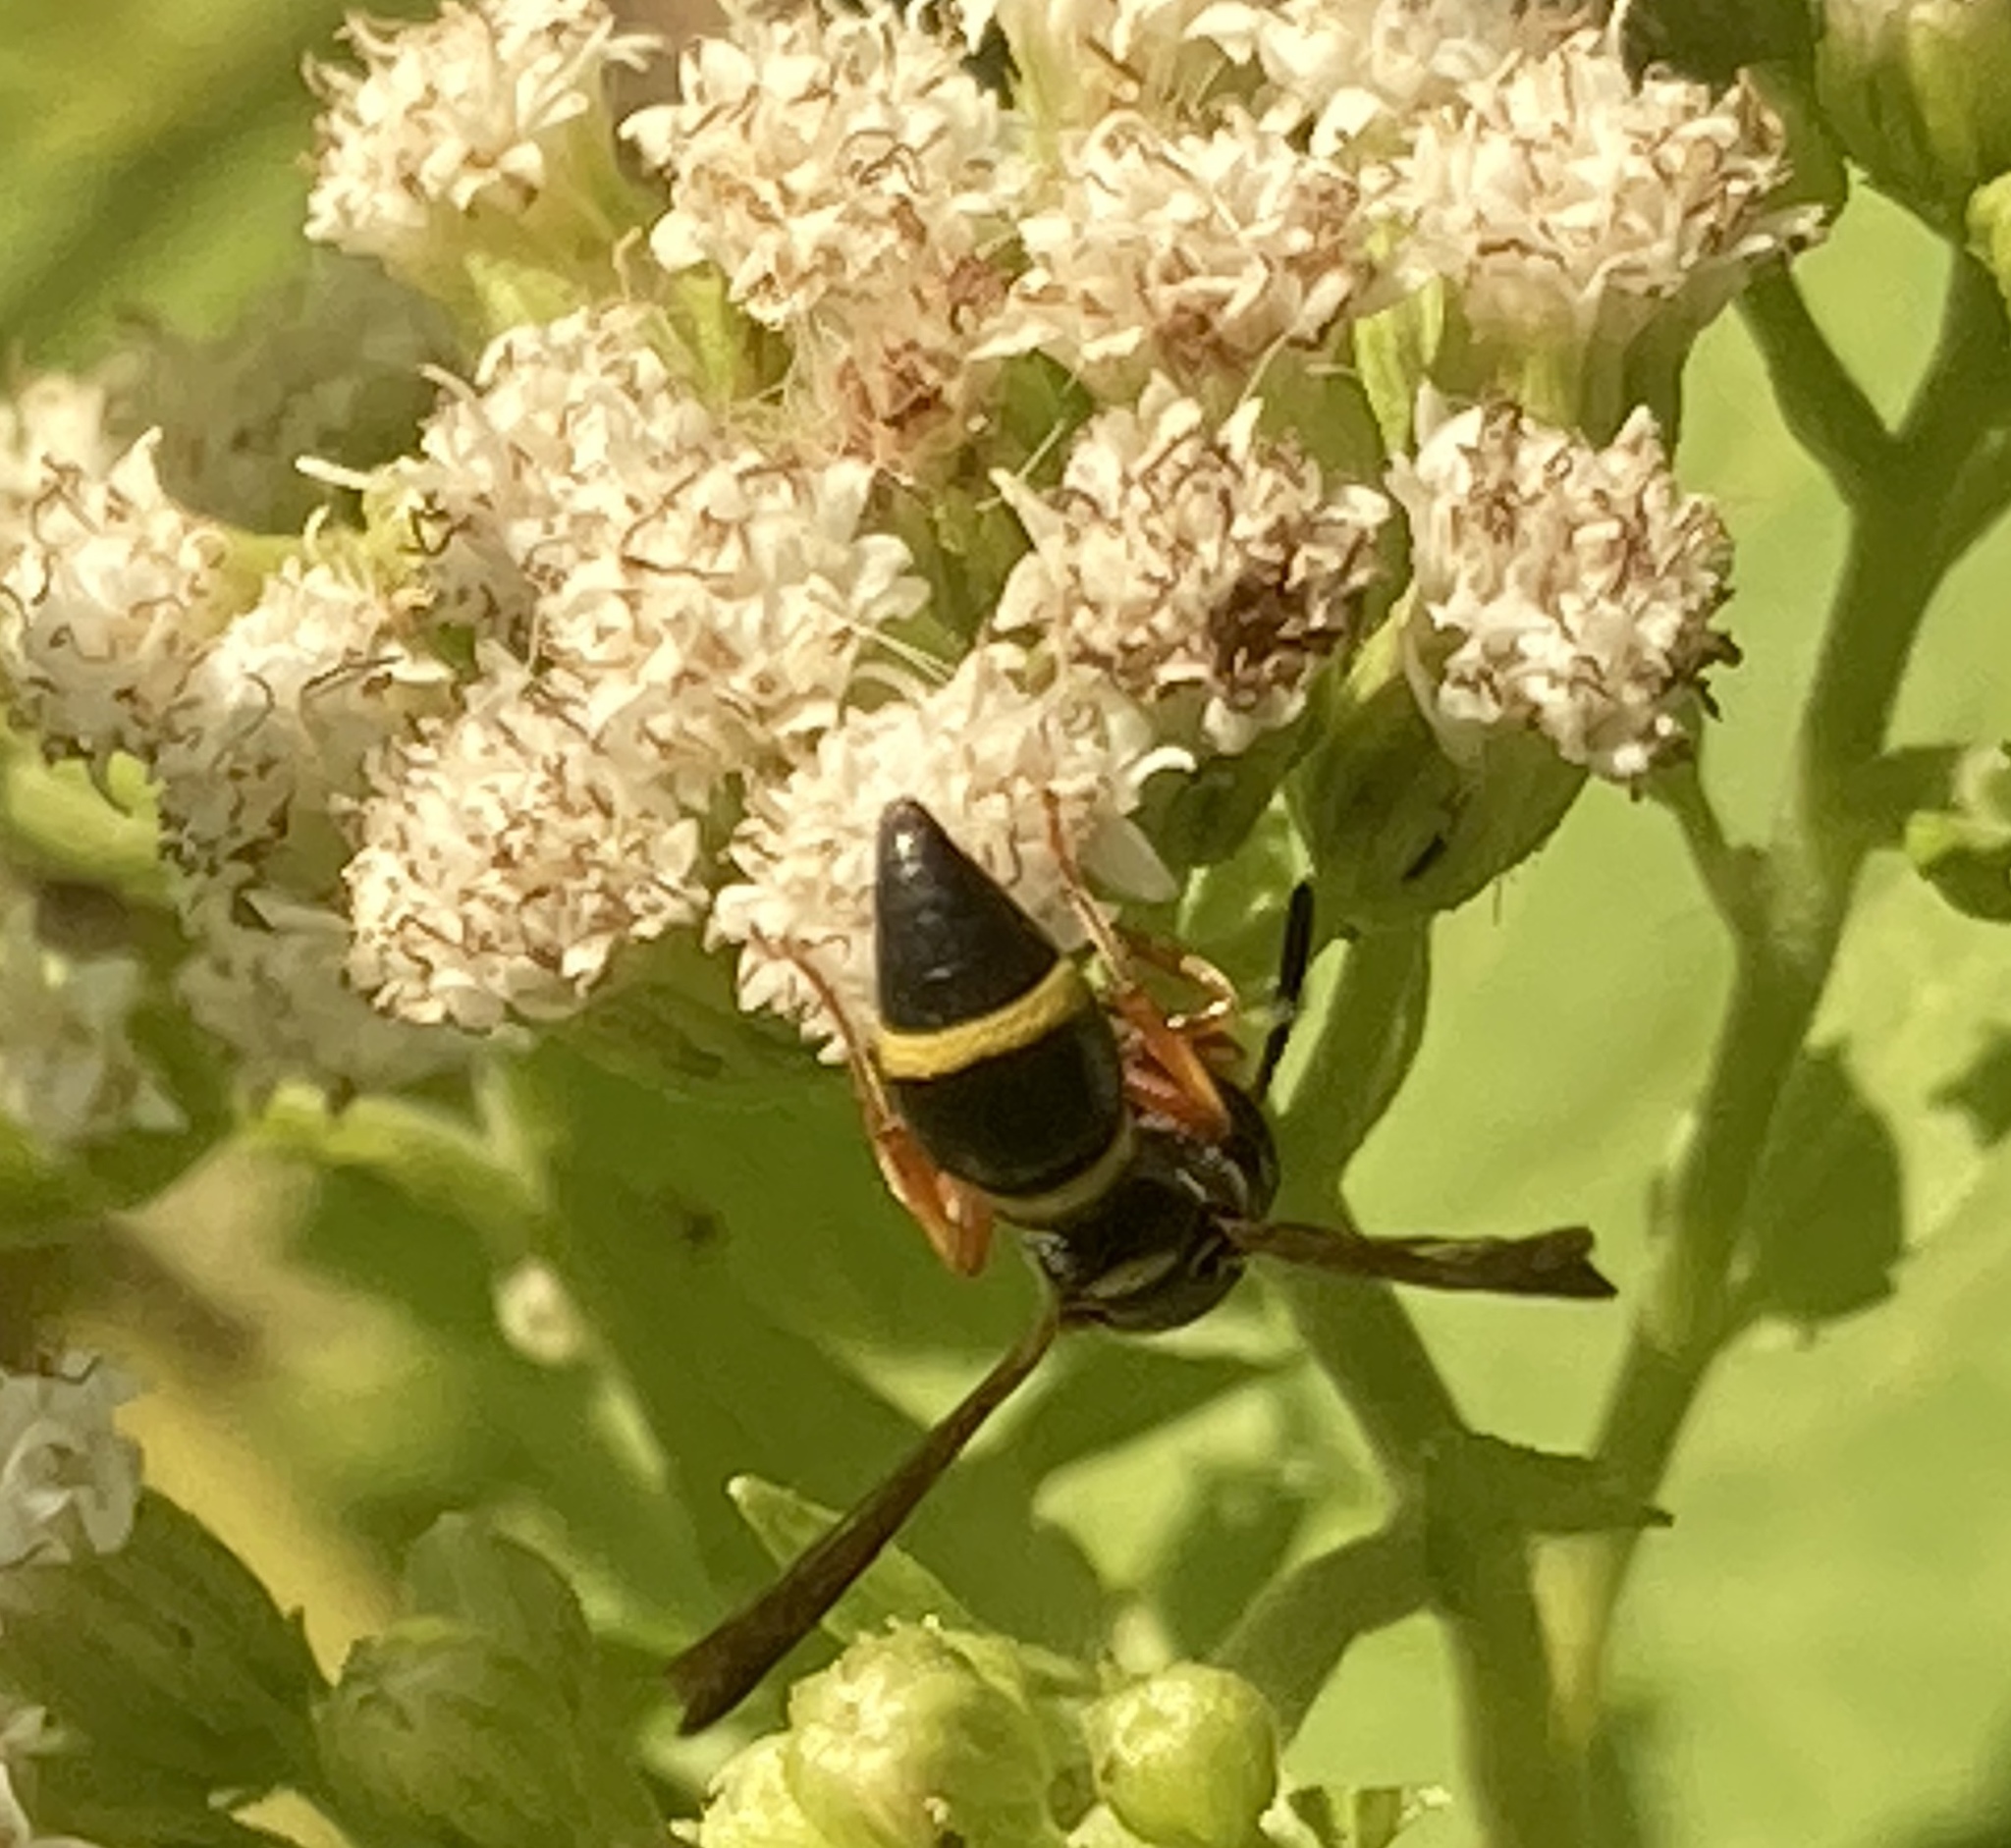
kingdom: Animalia
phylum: Arthropoda
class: Insecta
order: Hymenoptera
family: Eumenidae
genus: Parancistrocerus
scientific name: Parancistrocerus perennis
